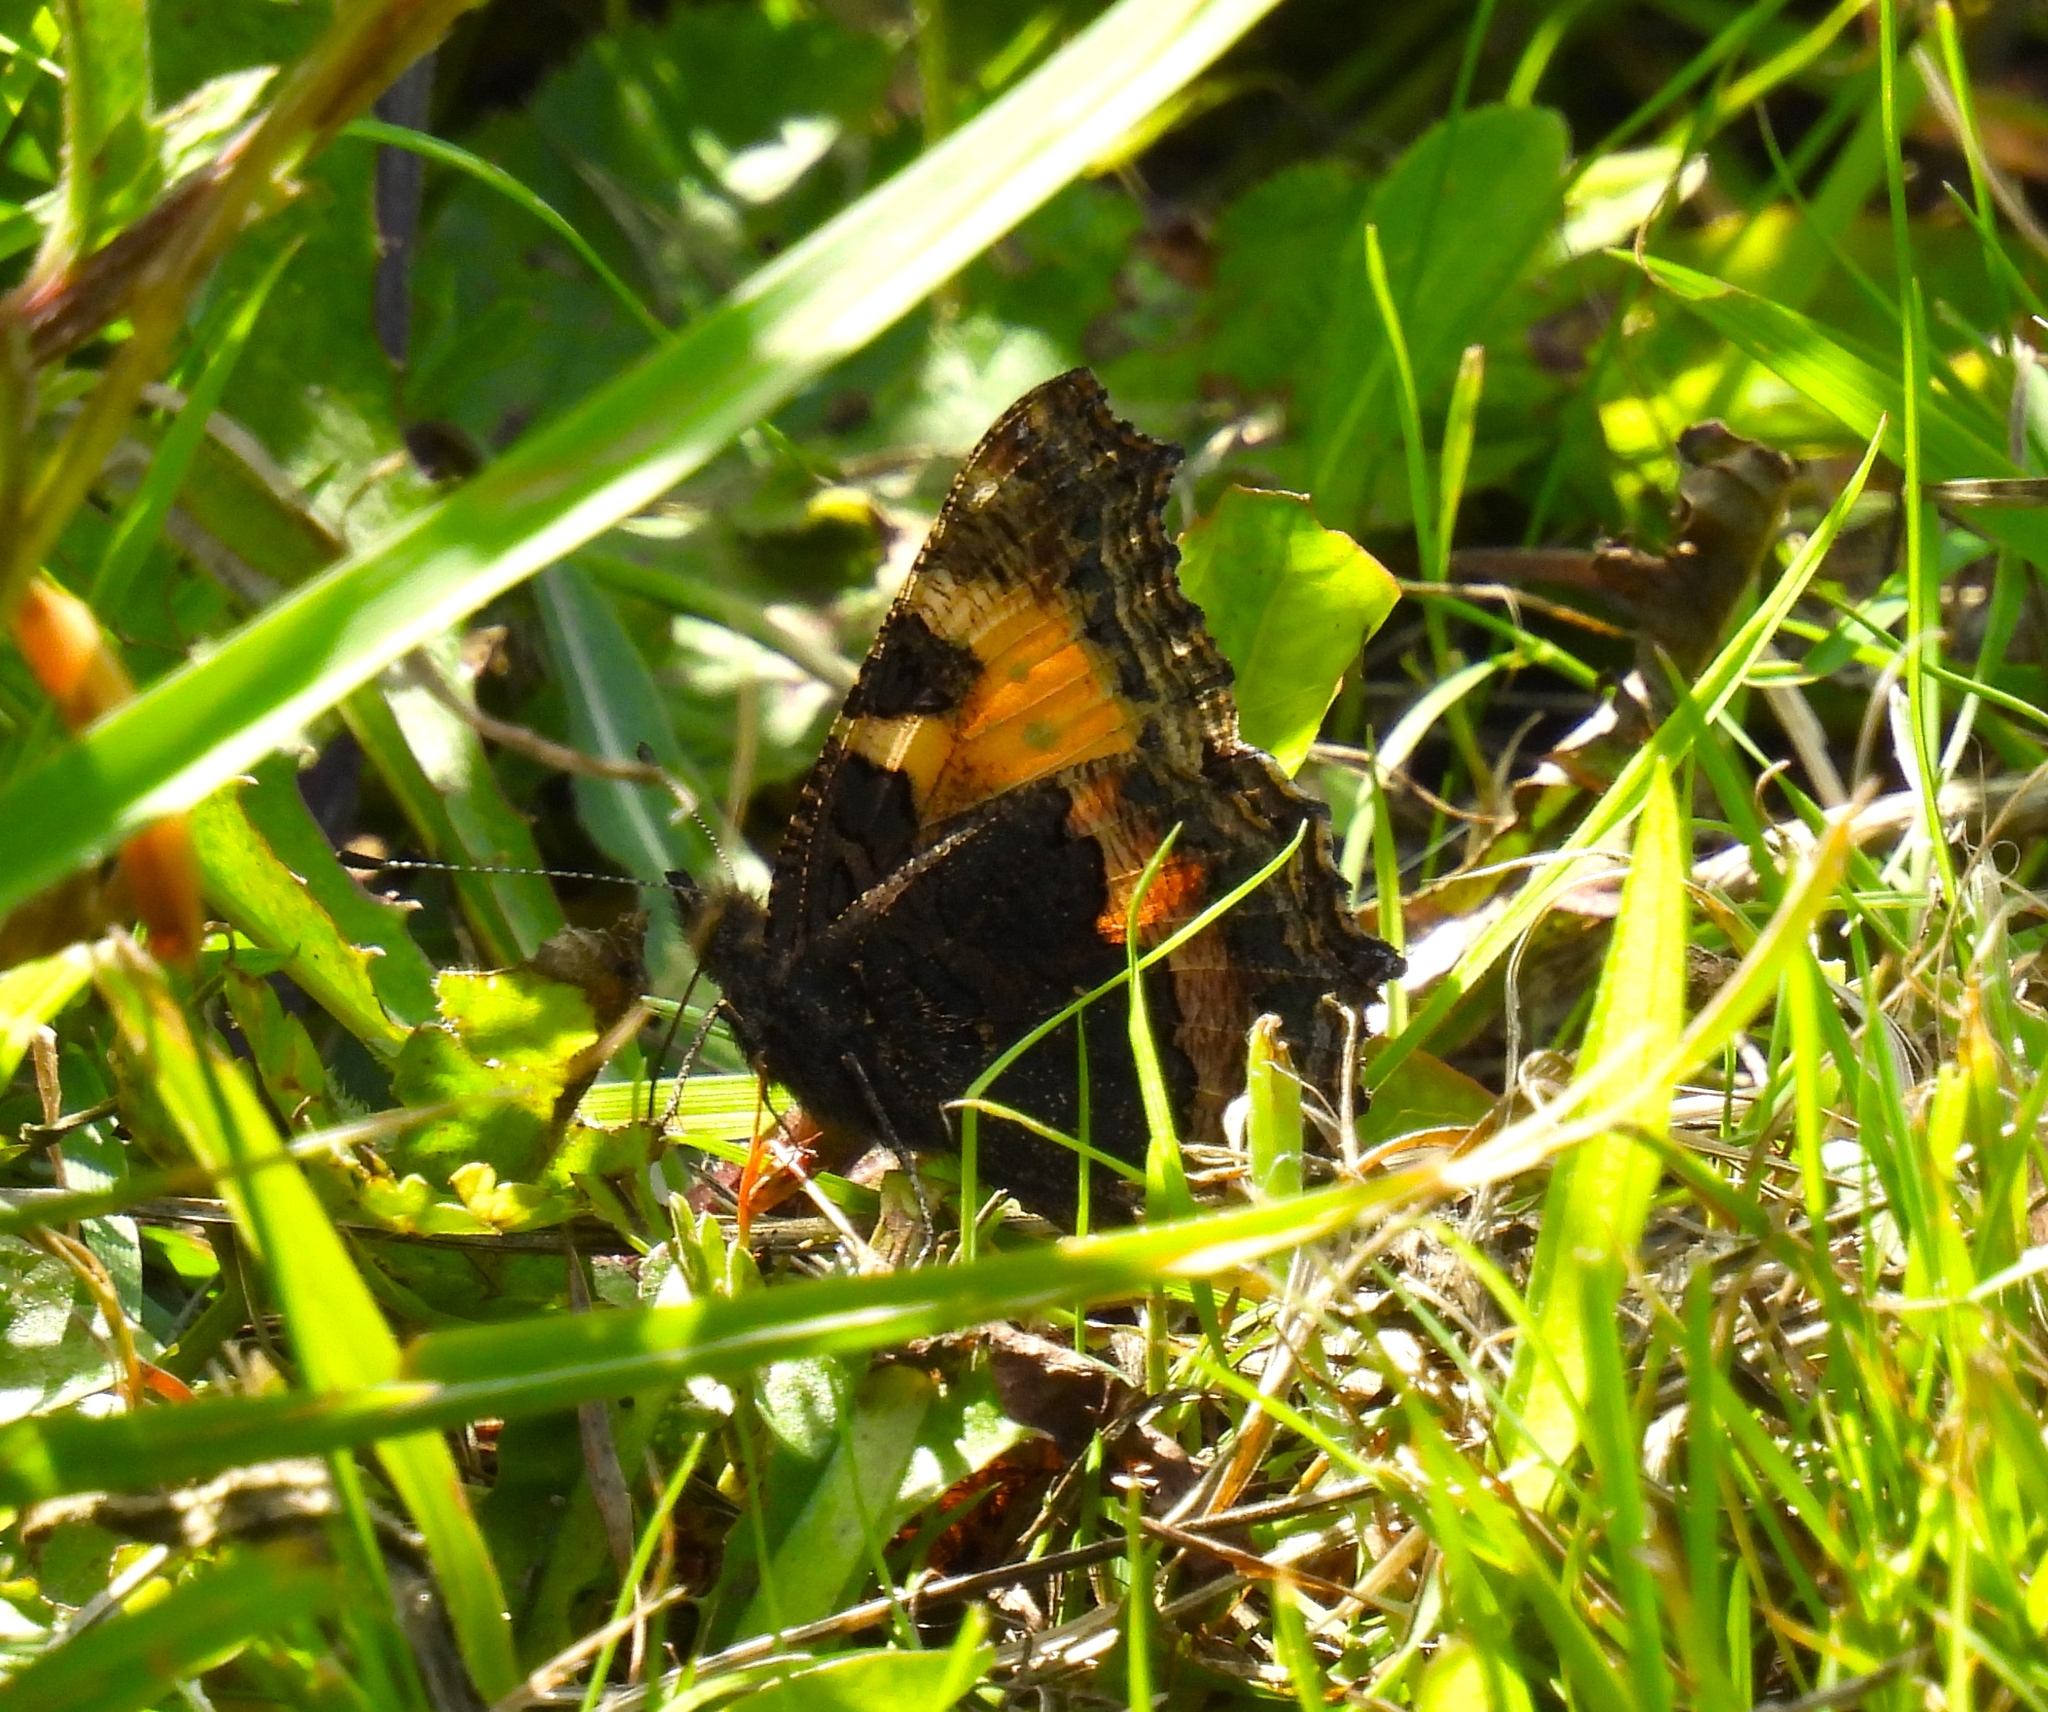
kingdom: Animalia
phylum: Arthropoda
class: Insecta
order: Lepidoptera
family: Nymphalidae
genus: Aglais
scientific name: Aglais urticae
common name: Small tortoiseshell
